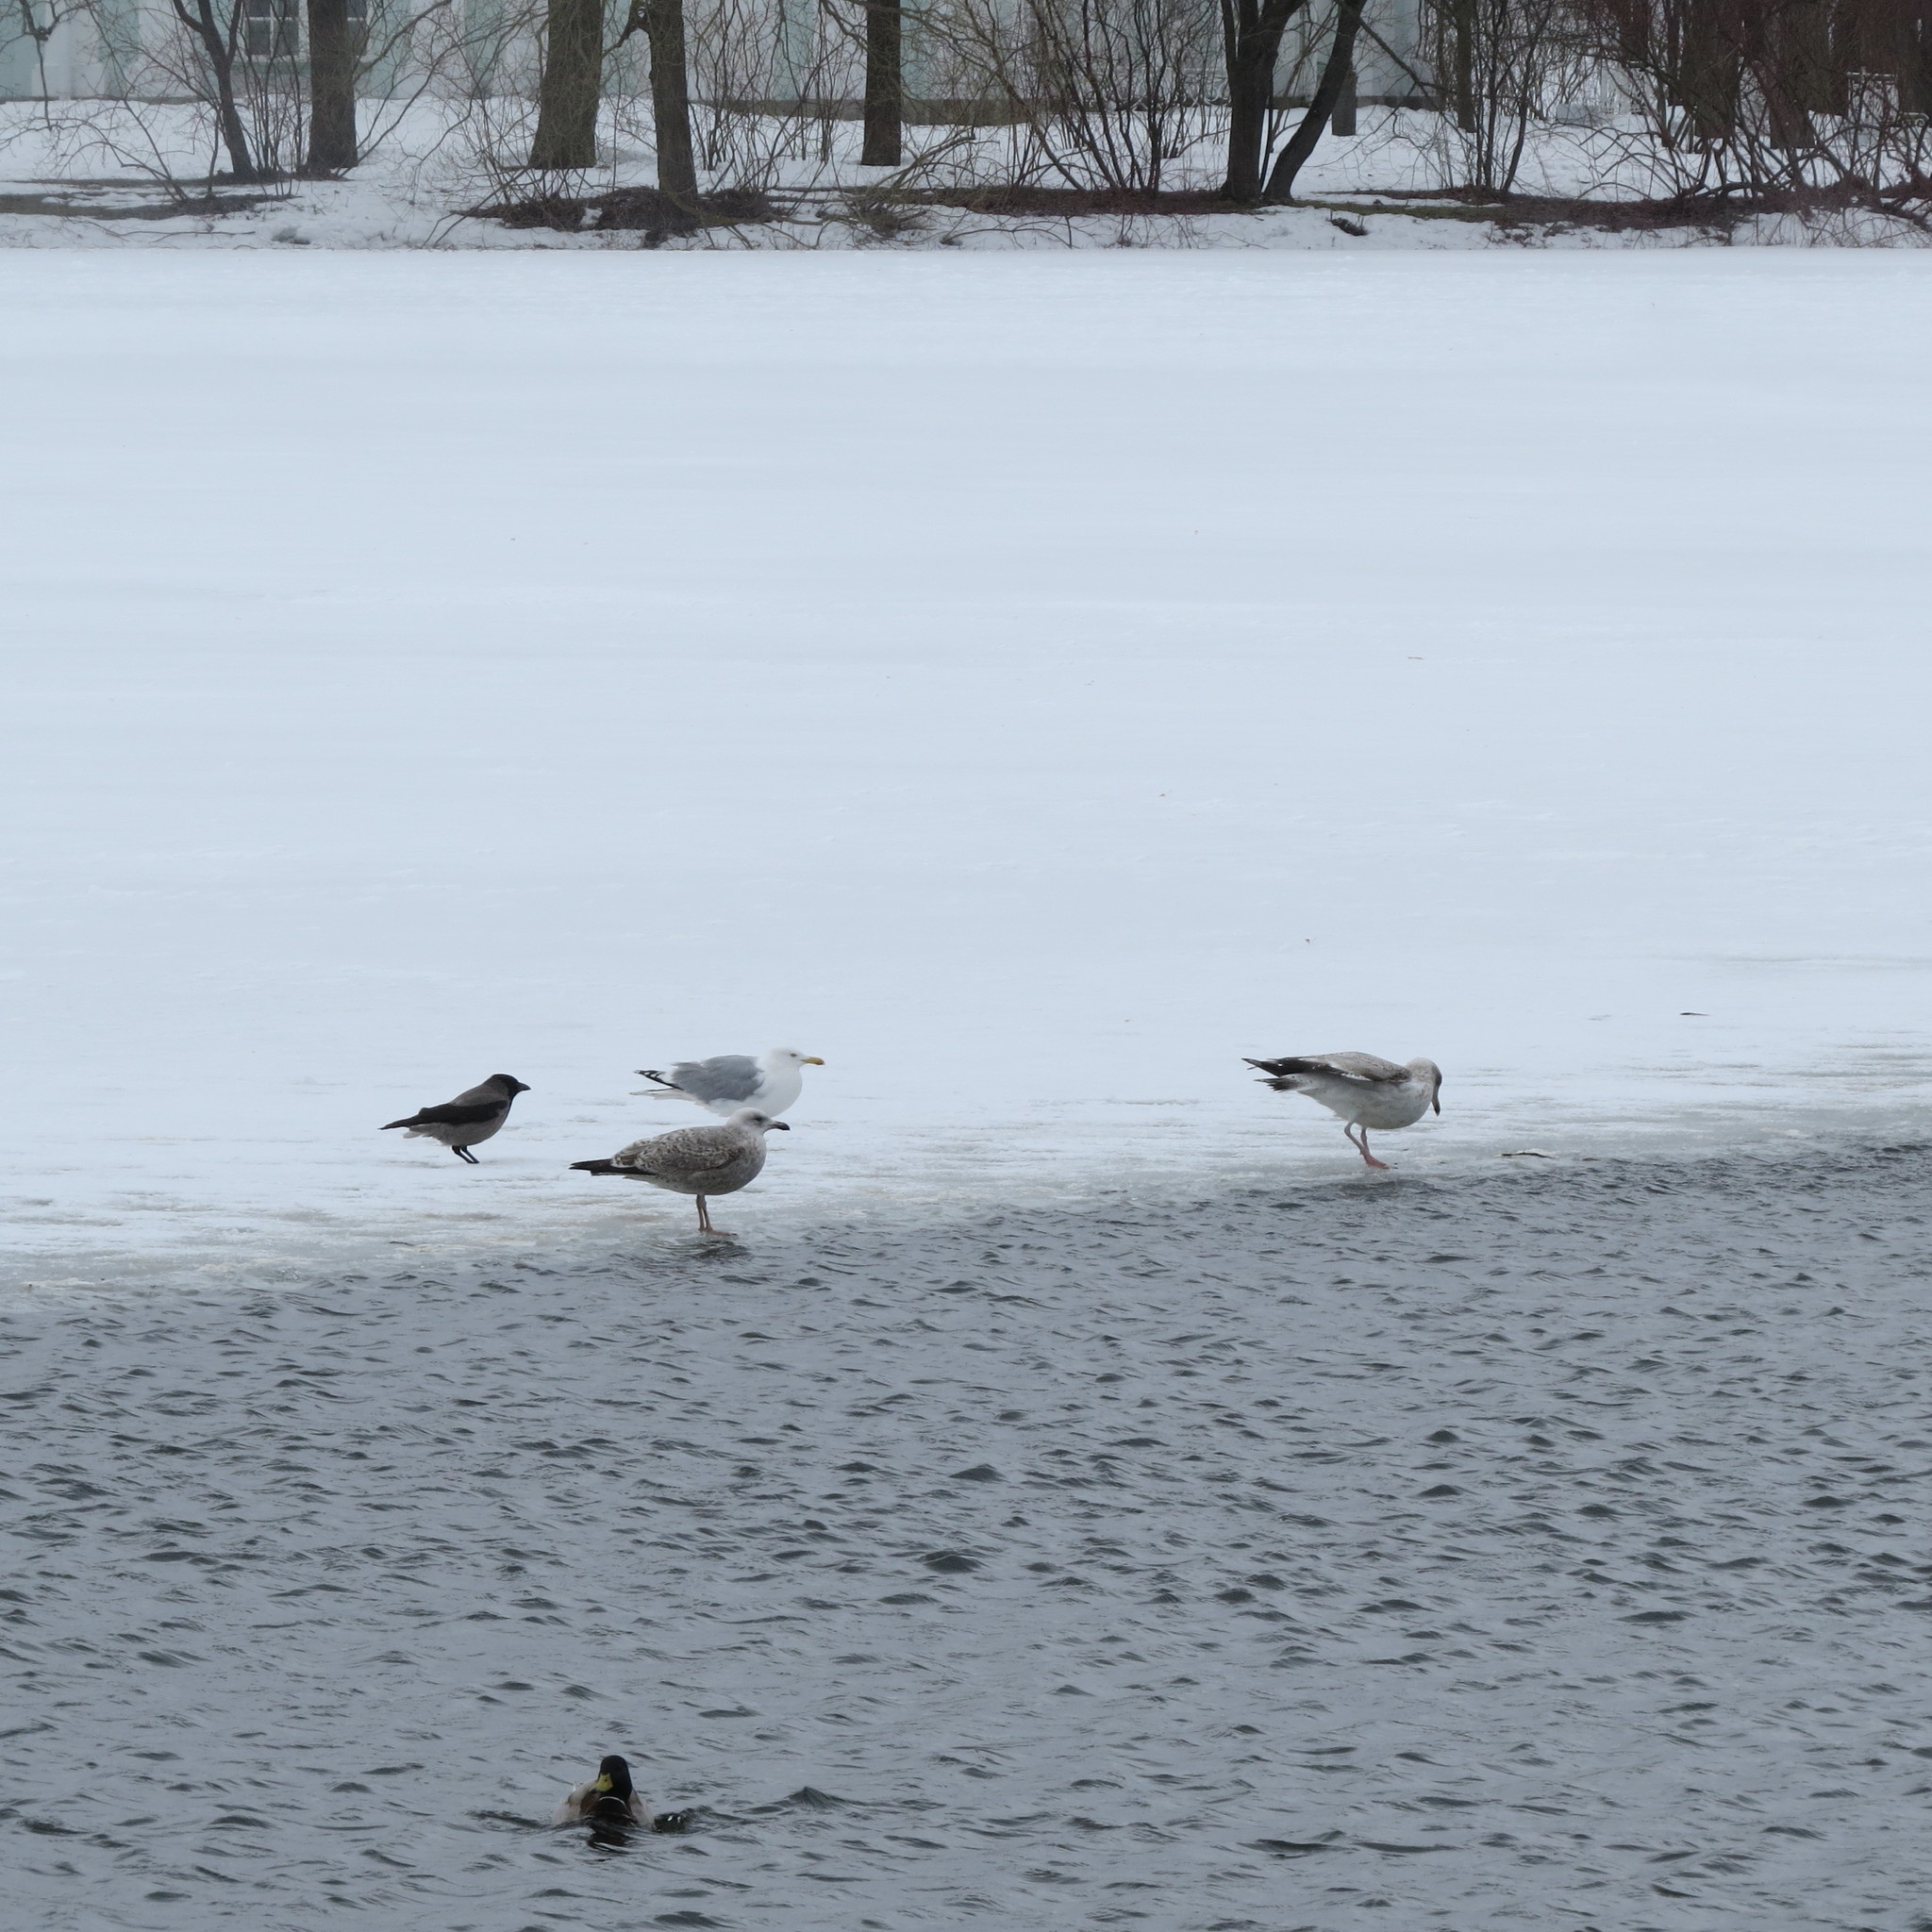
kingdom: Animalia
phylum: Chordata
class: Aves
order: Charadriiformes
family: Laridae
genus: Larus
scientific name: Larus argentatus
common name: Herring gull
